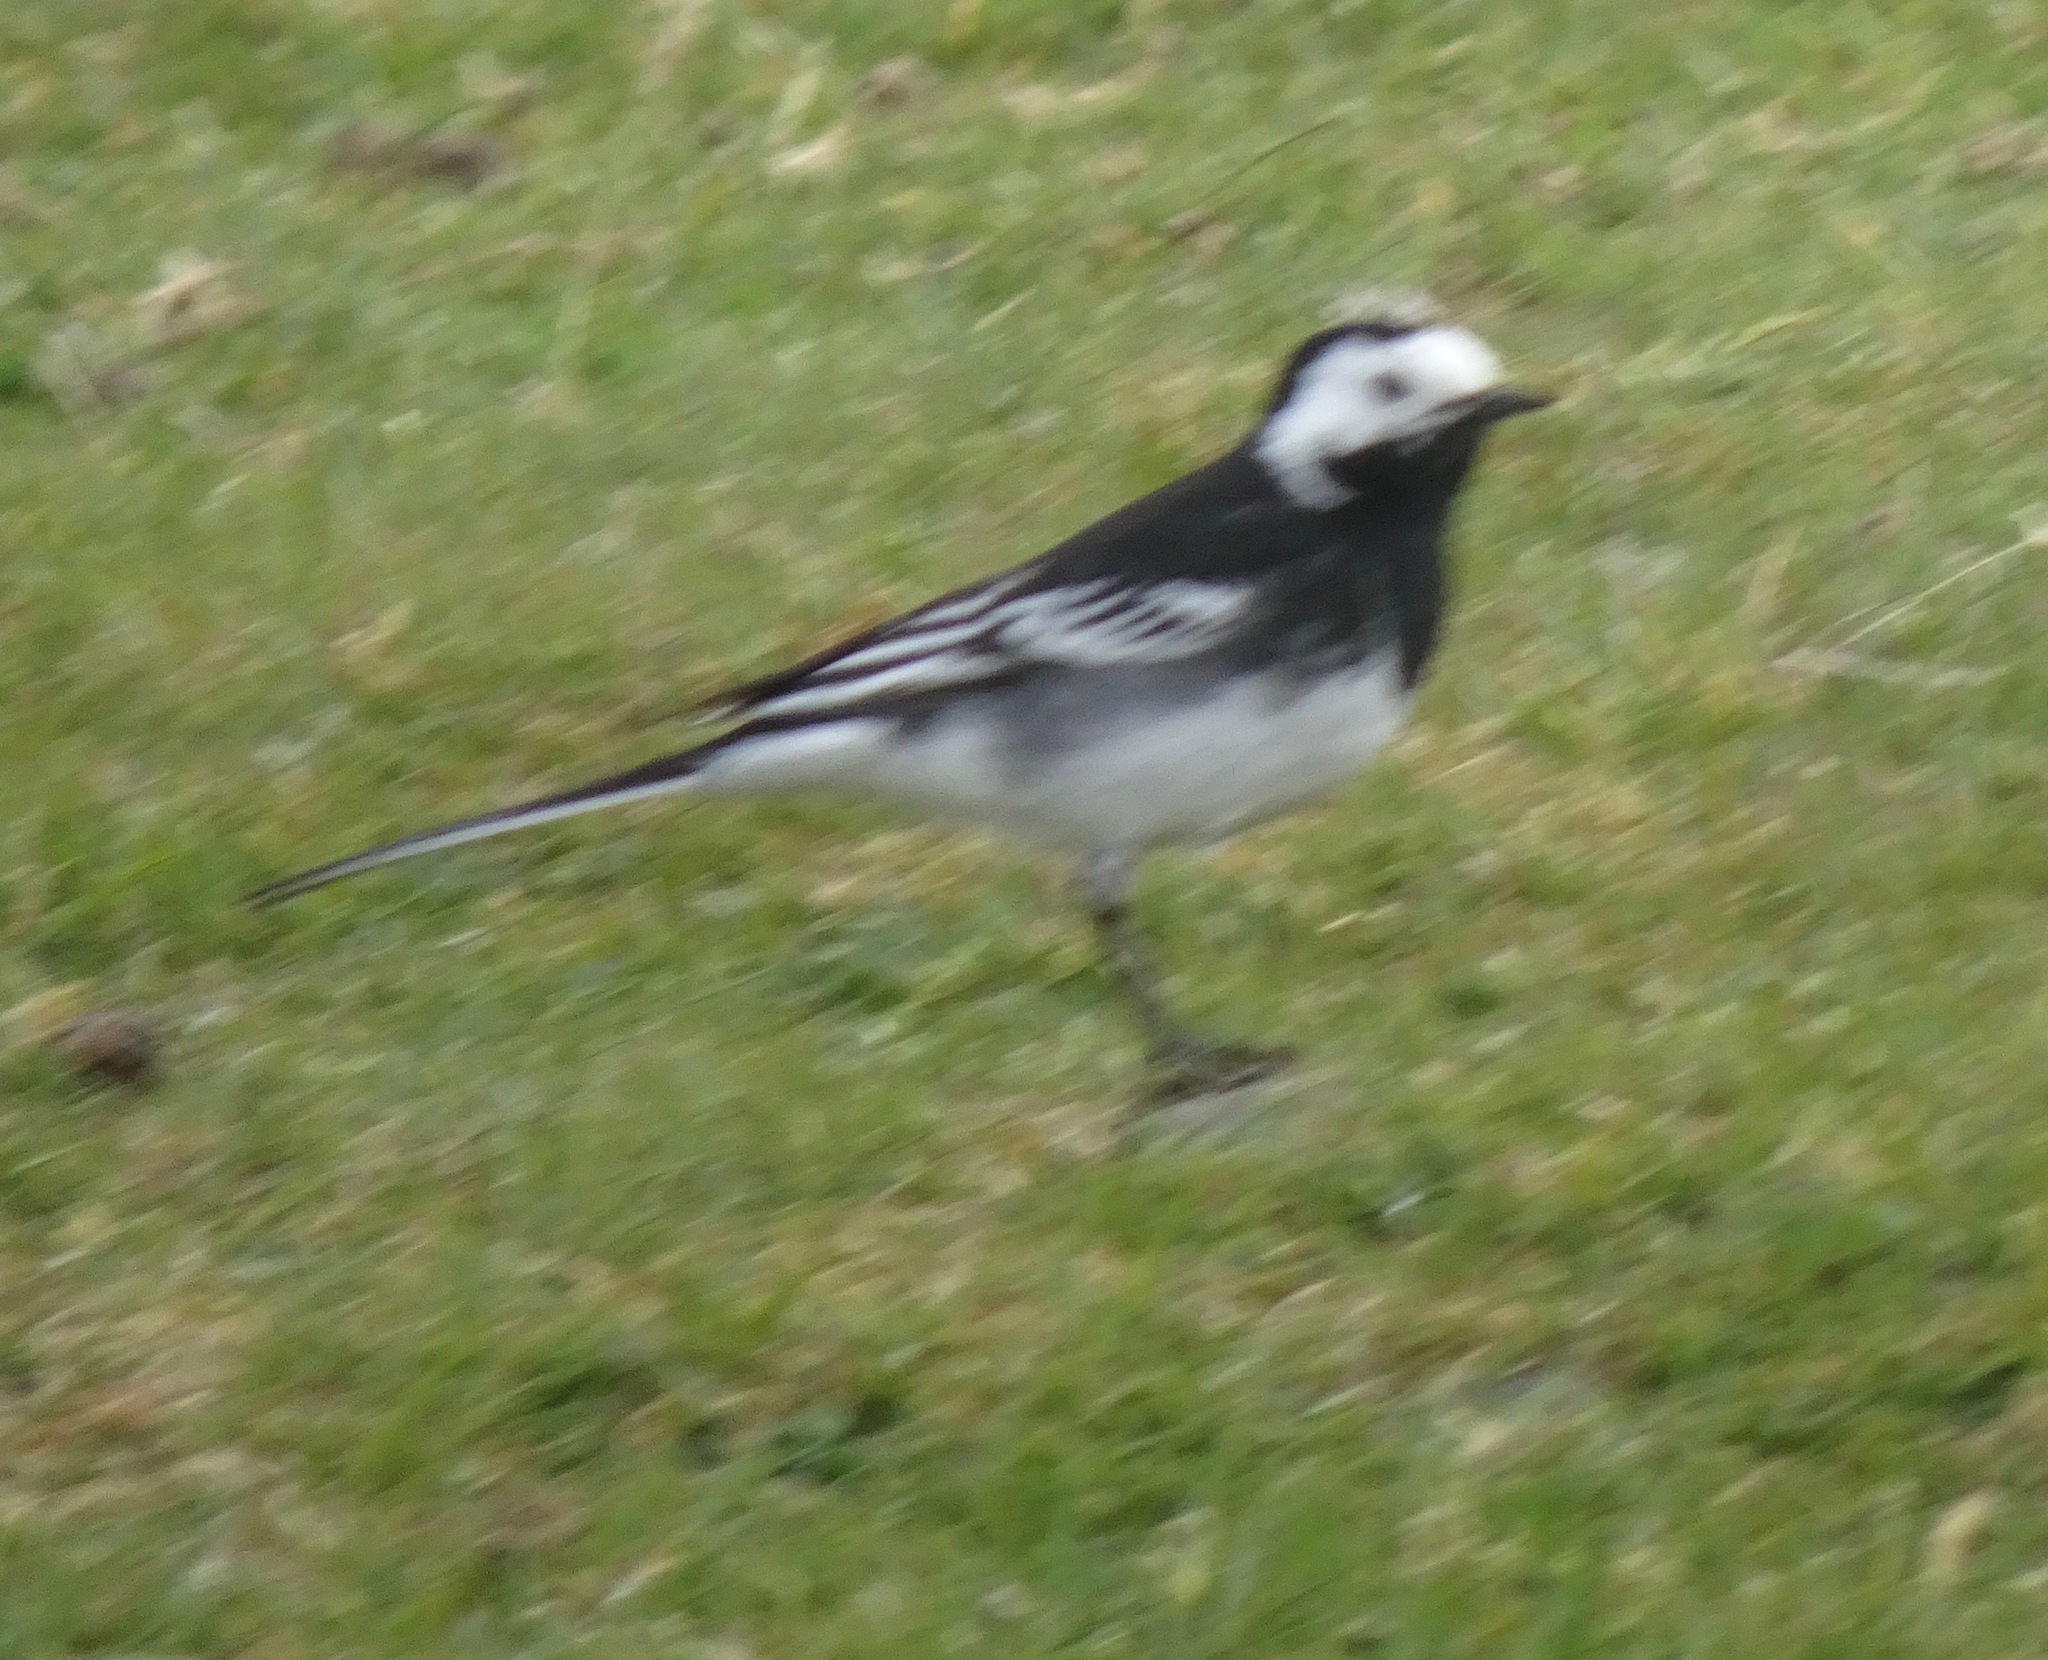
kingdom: Animalia
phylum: Chordata
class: Aves
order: Passeriformes
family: Motacillidae
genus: Motacilla
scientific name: Motacilla alba
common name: White wagtail
